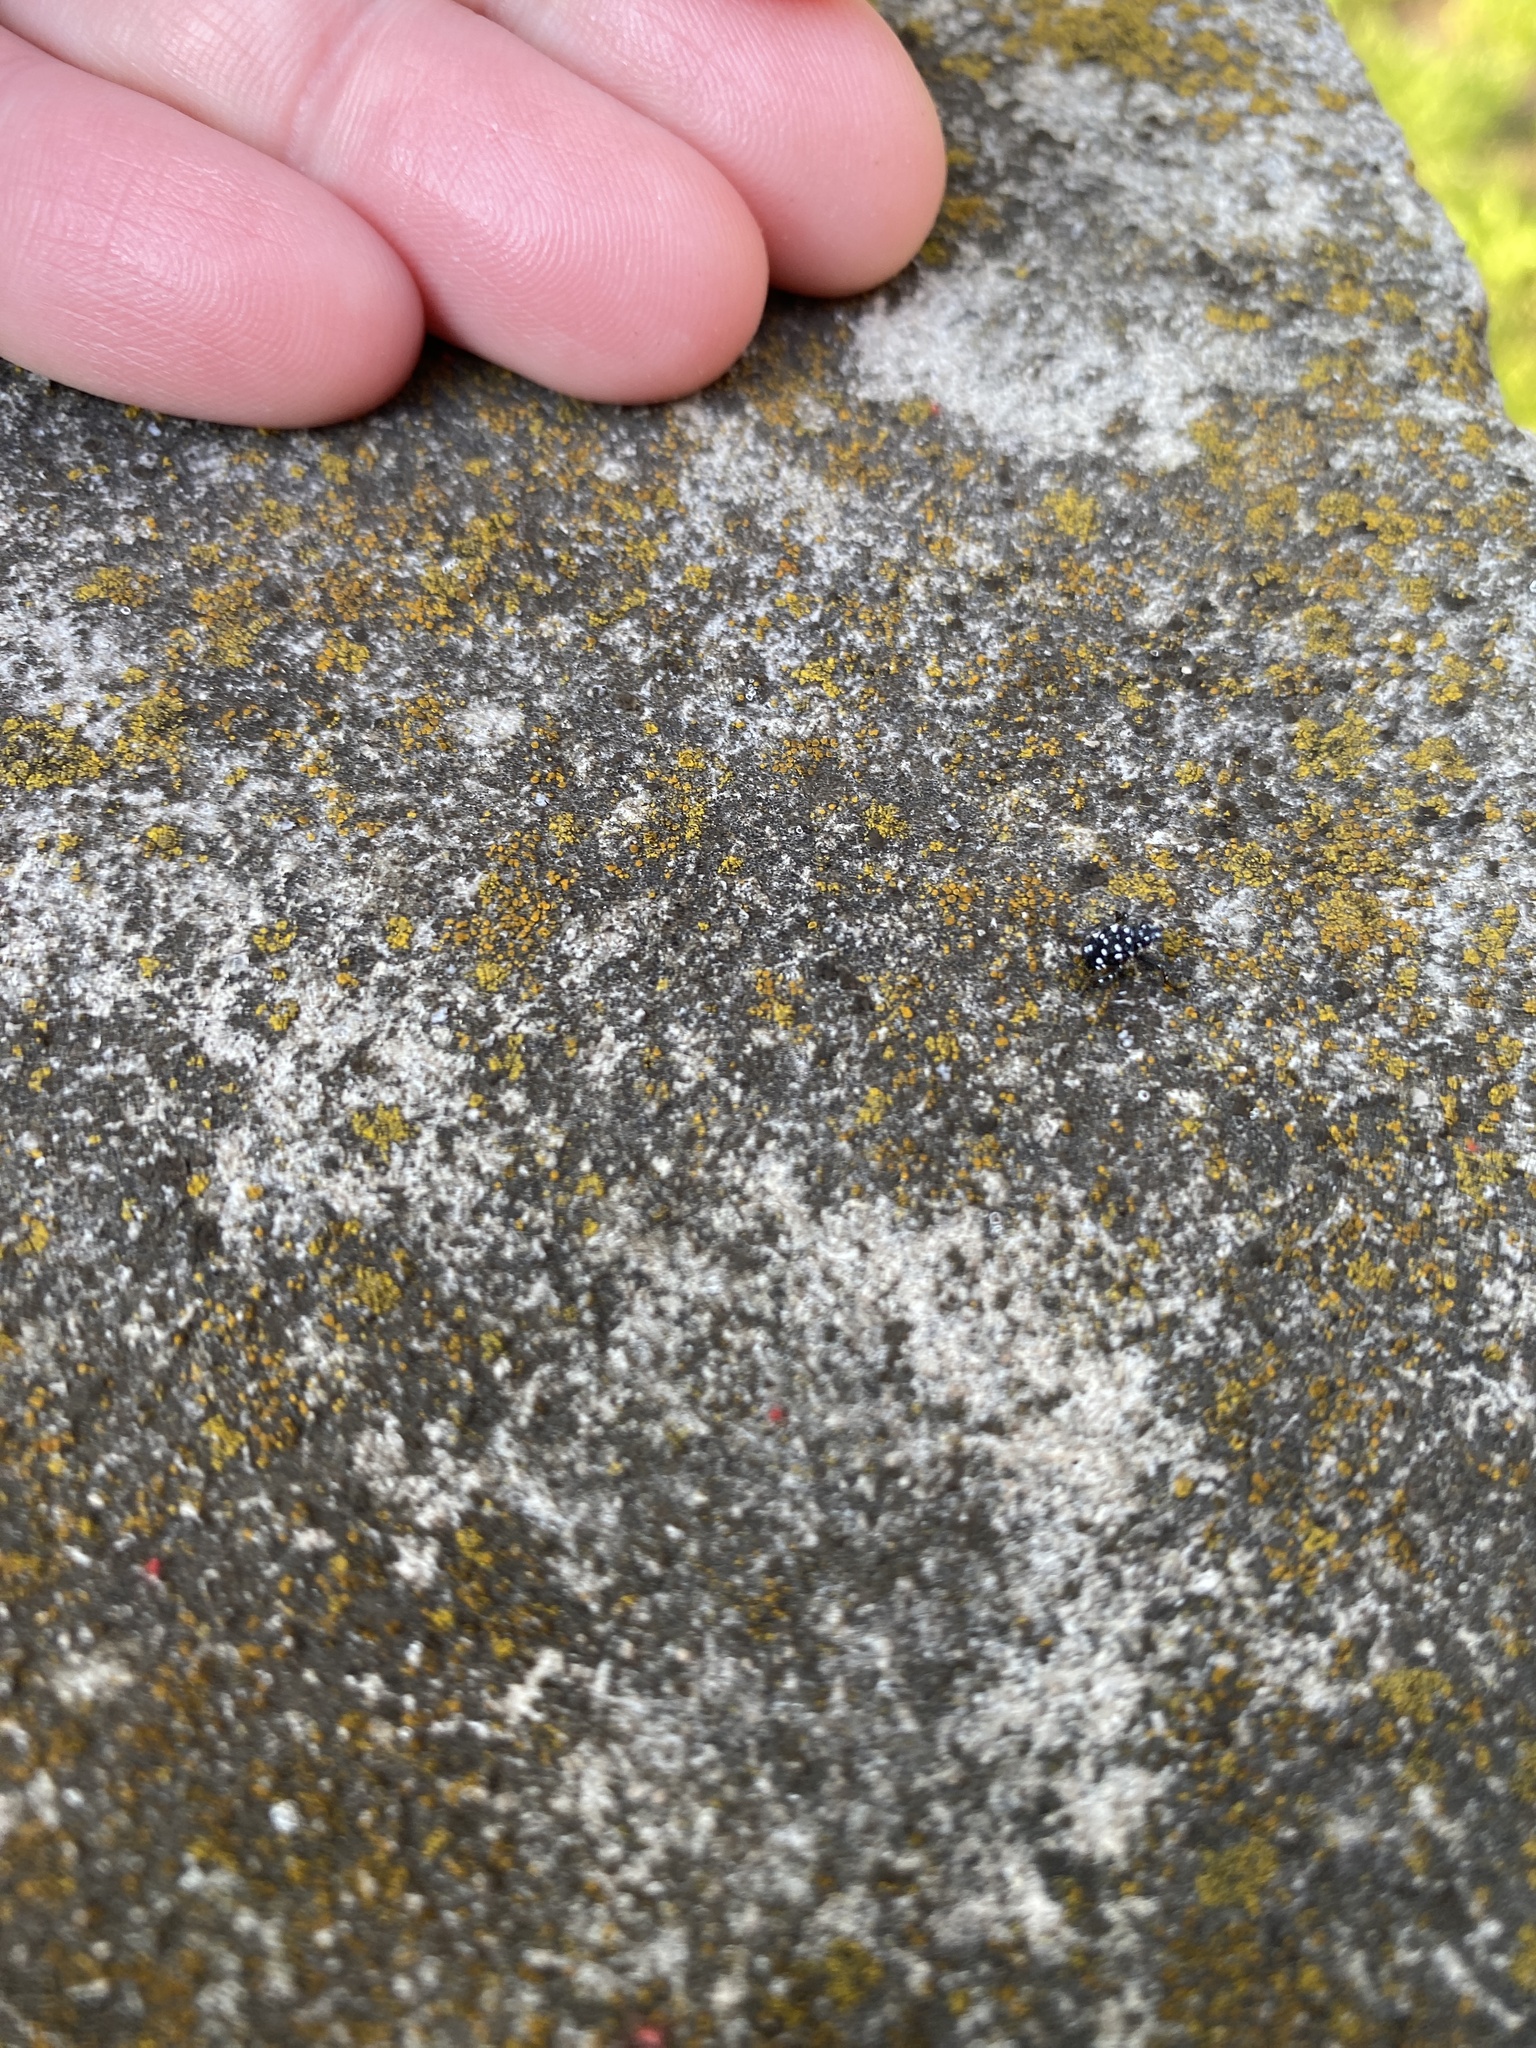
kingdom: Animalia
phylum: Arthropoda
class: Insecta
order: Hemiptera
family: Fulgoridae
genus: Lycorma
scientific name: Lycorma delicatula
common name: Spotted lanternfly
